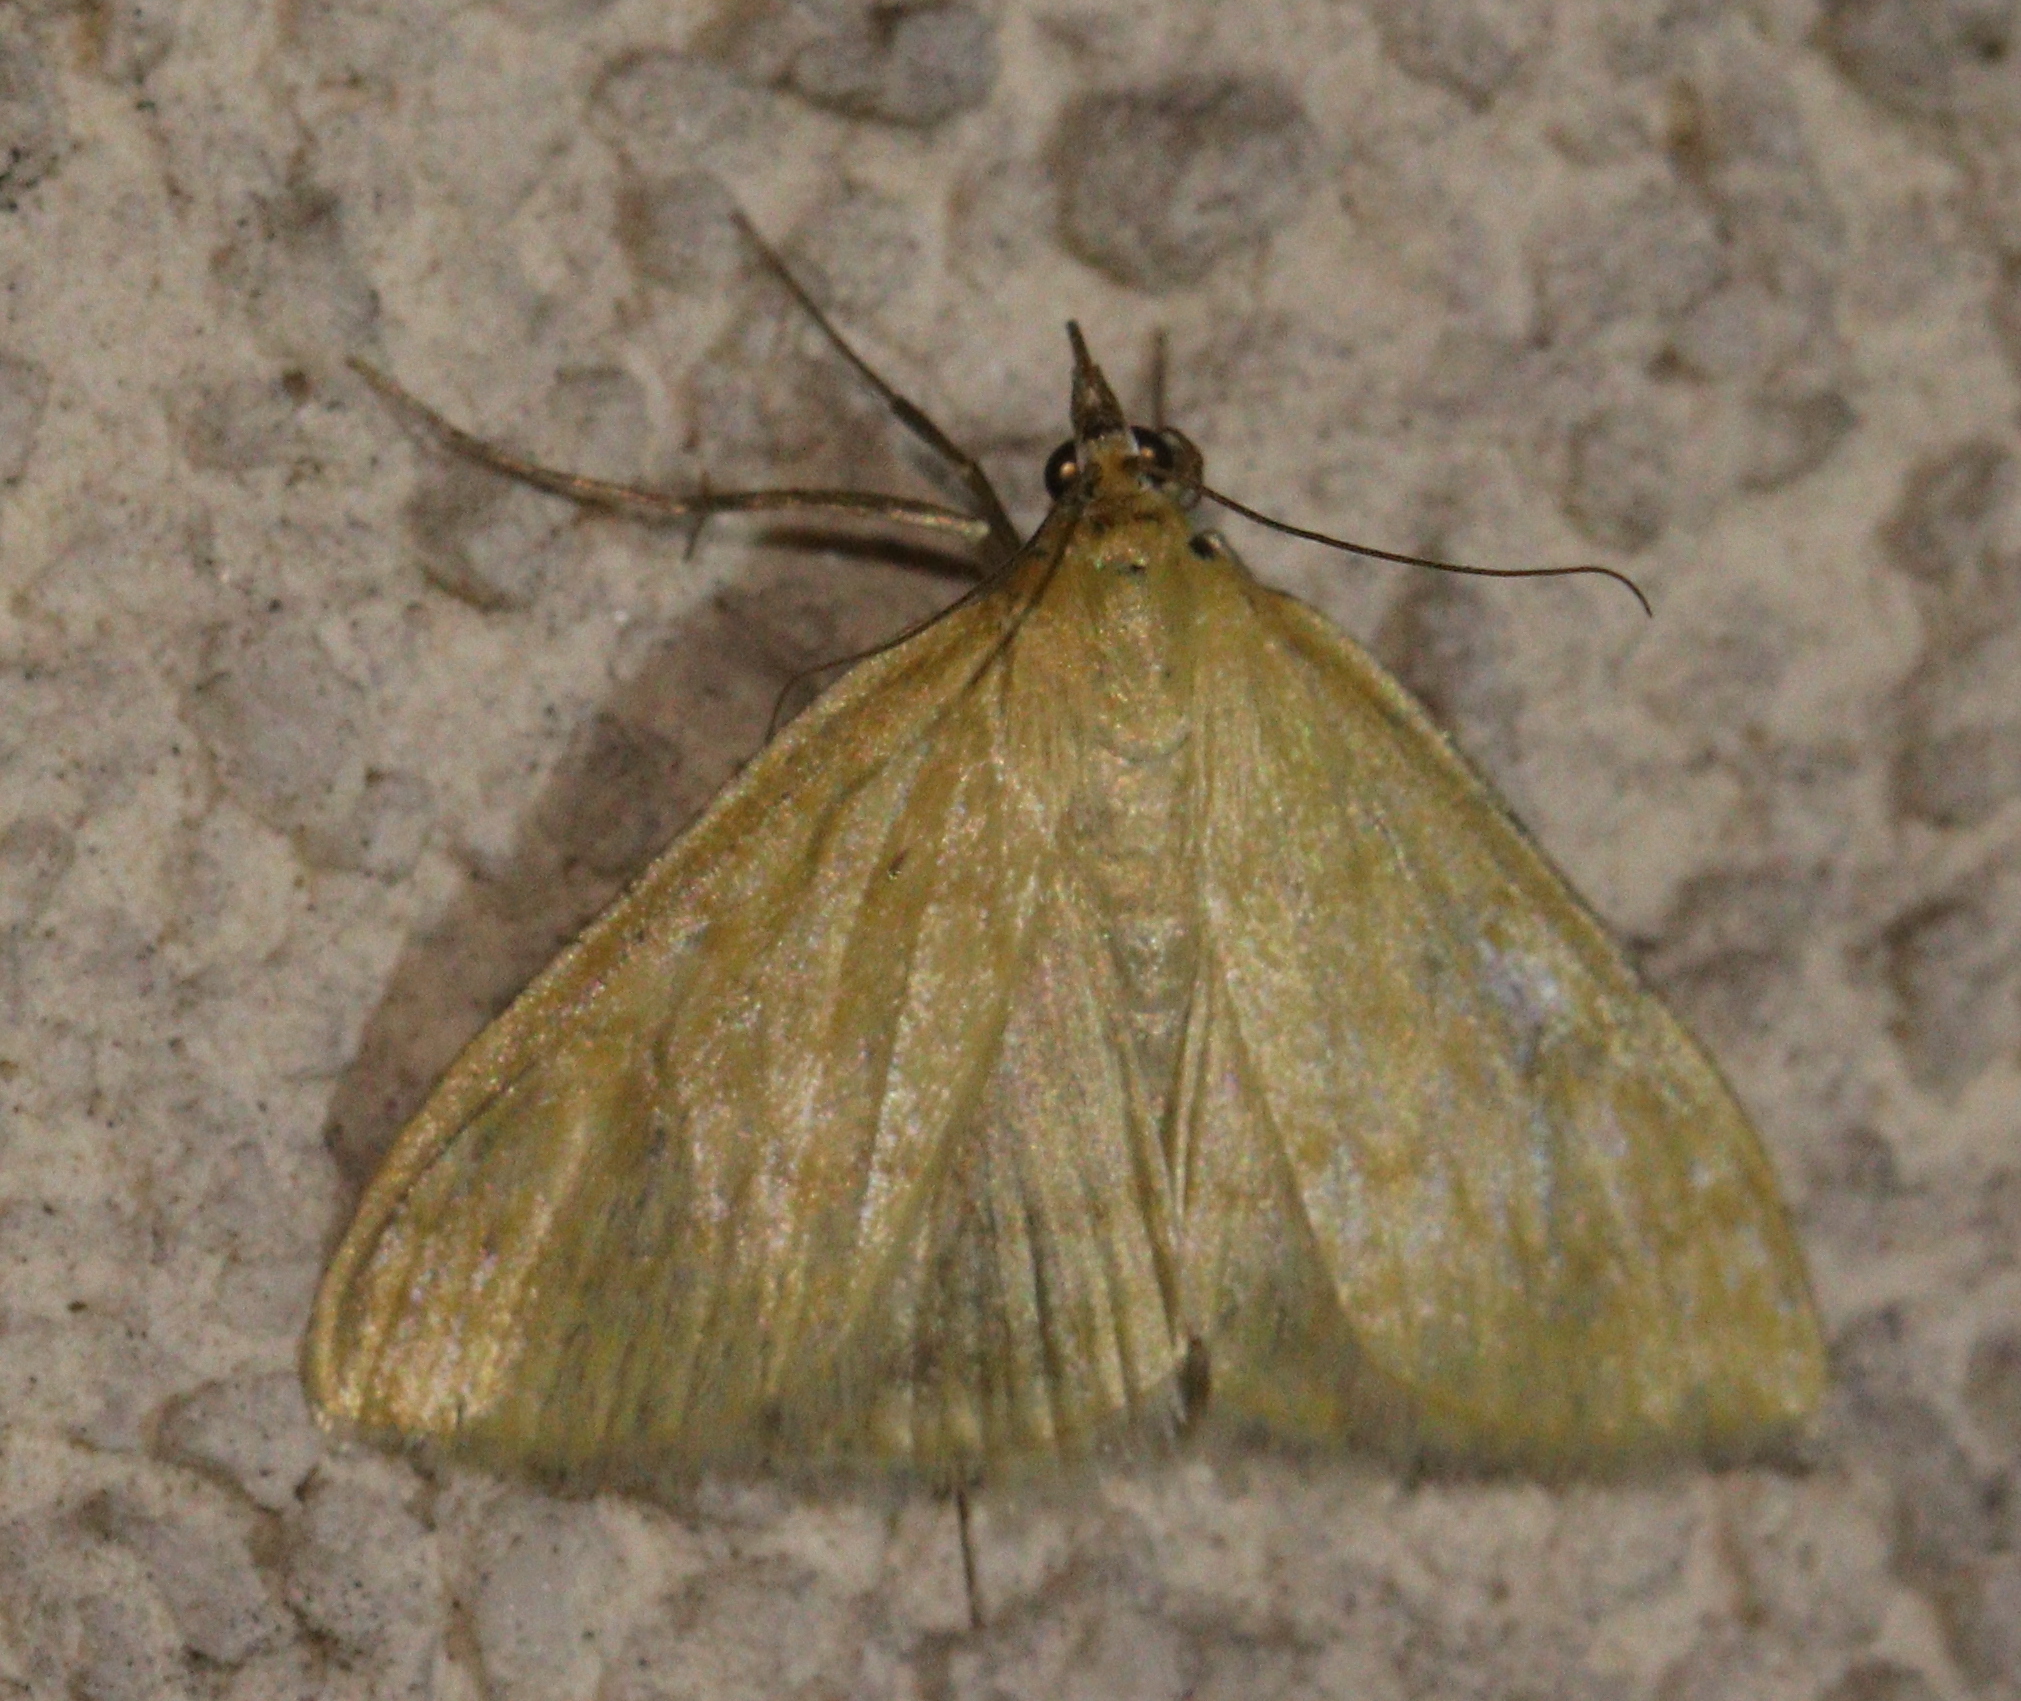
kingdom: Animalia
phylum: Arthropoda
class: Insecta
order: Lepidoptera
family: Crambidae
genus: Sitochroa
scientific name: Sitochroa verticalis
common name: Lesser pearl
